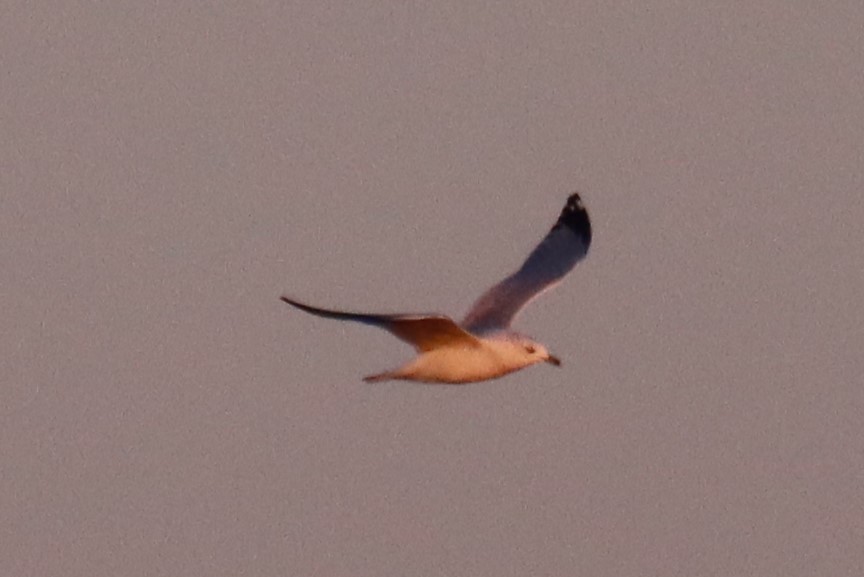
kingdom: Animalia
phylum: Chordata
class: Aves
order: Charadriiformes
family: Laridae
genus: Larus
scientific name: Larus delawarensis
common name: Ring-billed gull
